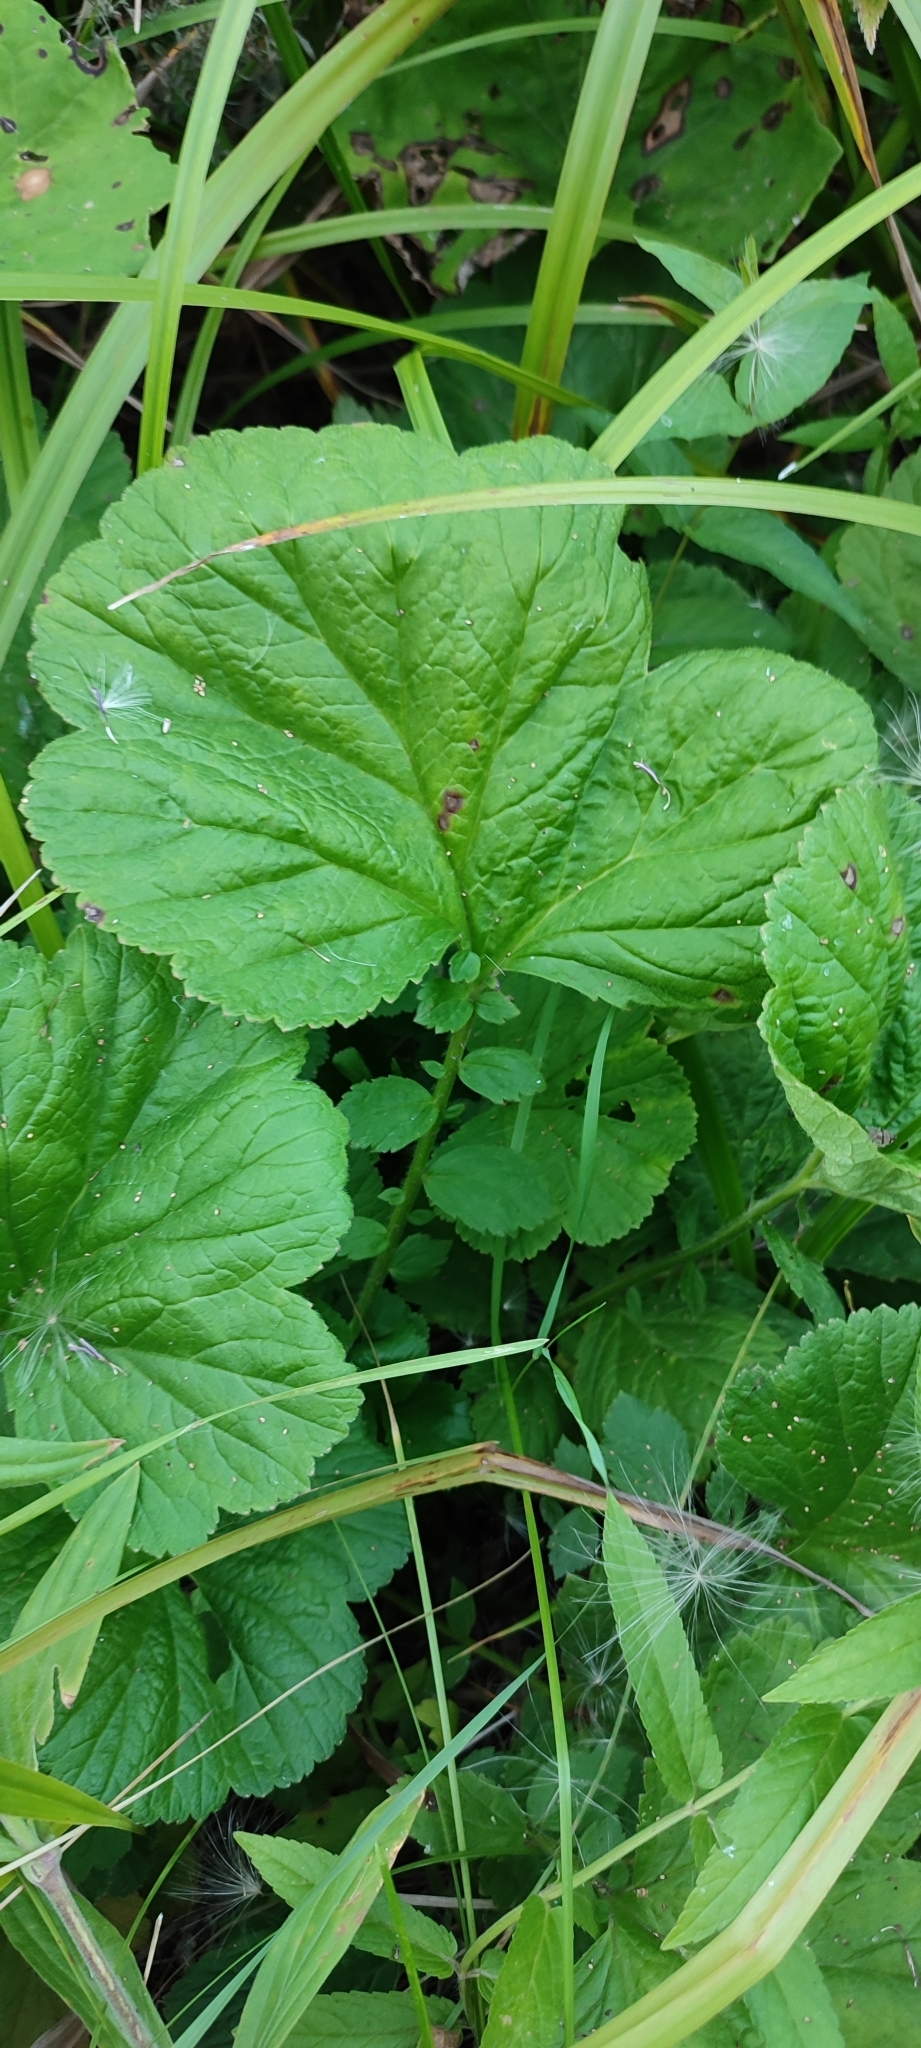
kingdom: Plantae
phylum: Tracheophyta
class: Magnoliopsida
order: Rosales
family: Rosaceae
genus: Geum
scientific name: Geum rivale
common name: Water avens
